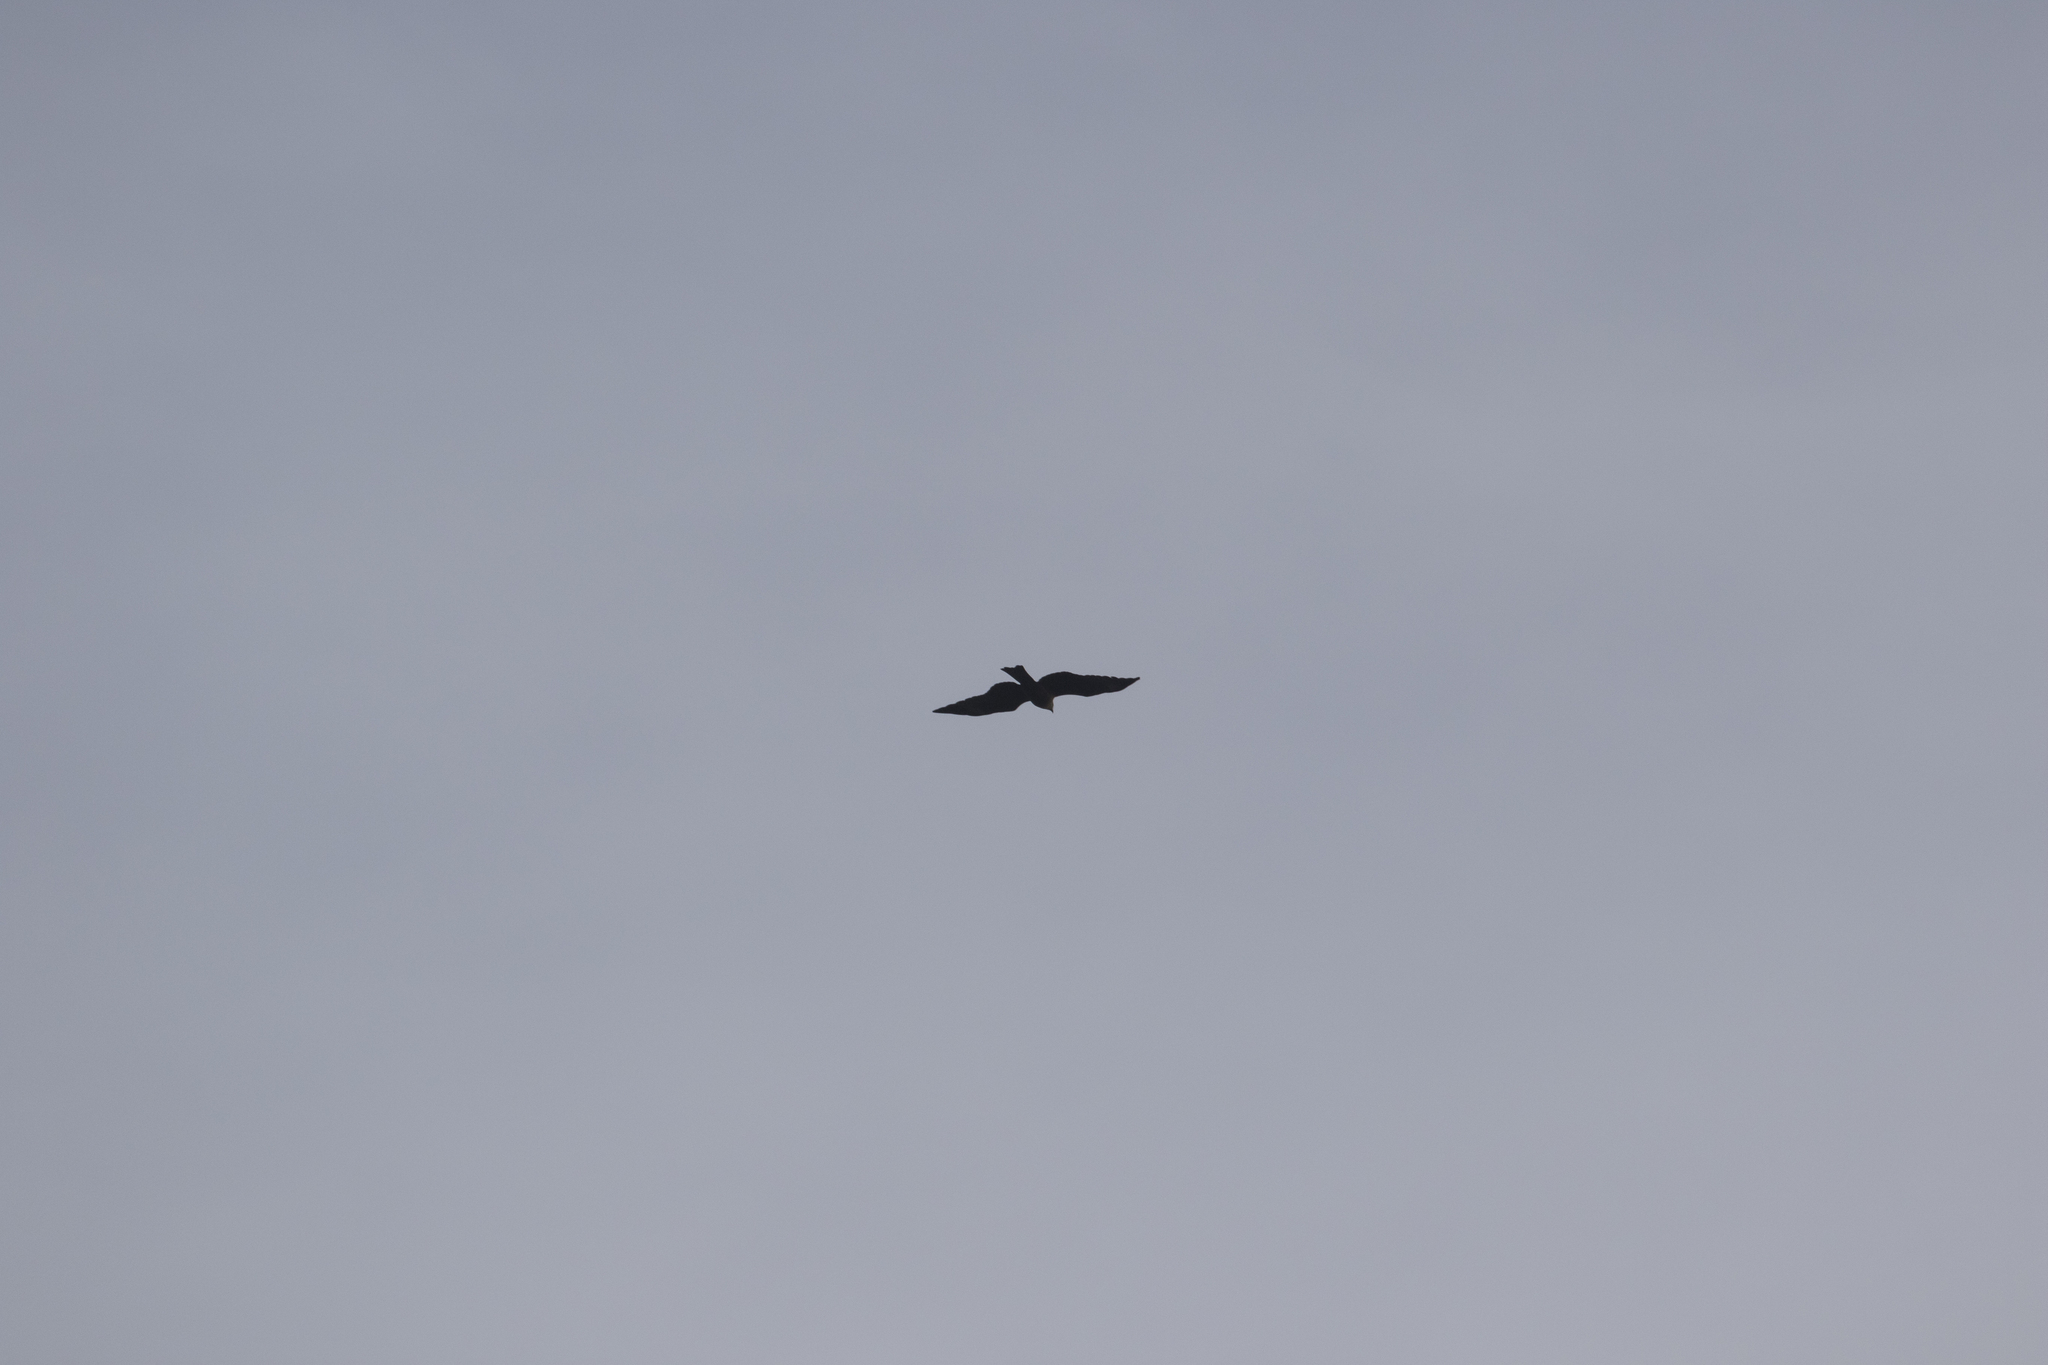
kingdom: Animalia
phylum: Chordata
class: Aves
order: Accipitriformes
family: Accipitridae
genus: Milvus
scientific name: Milvus migrans
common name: Black kite
